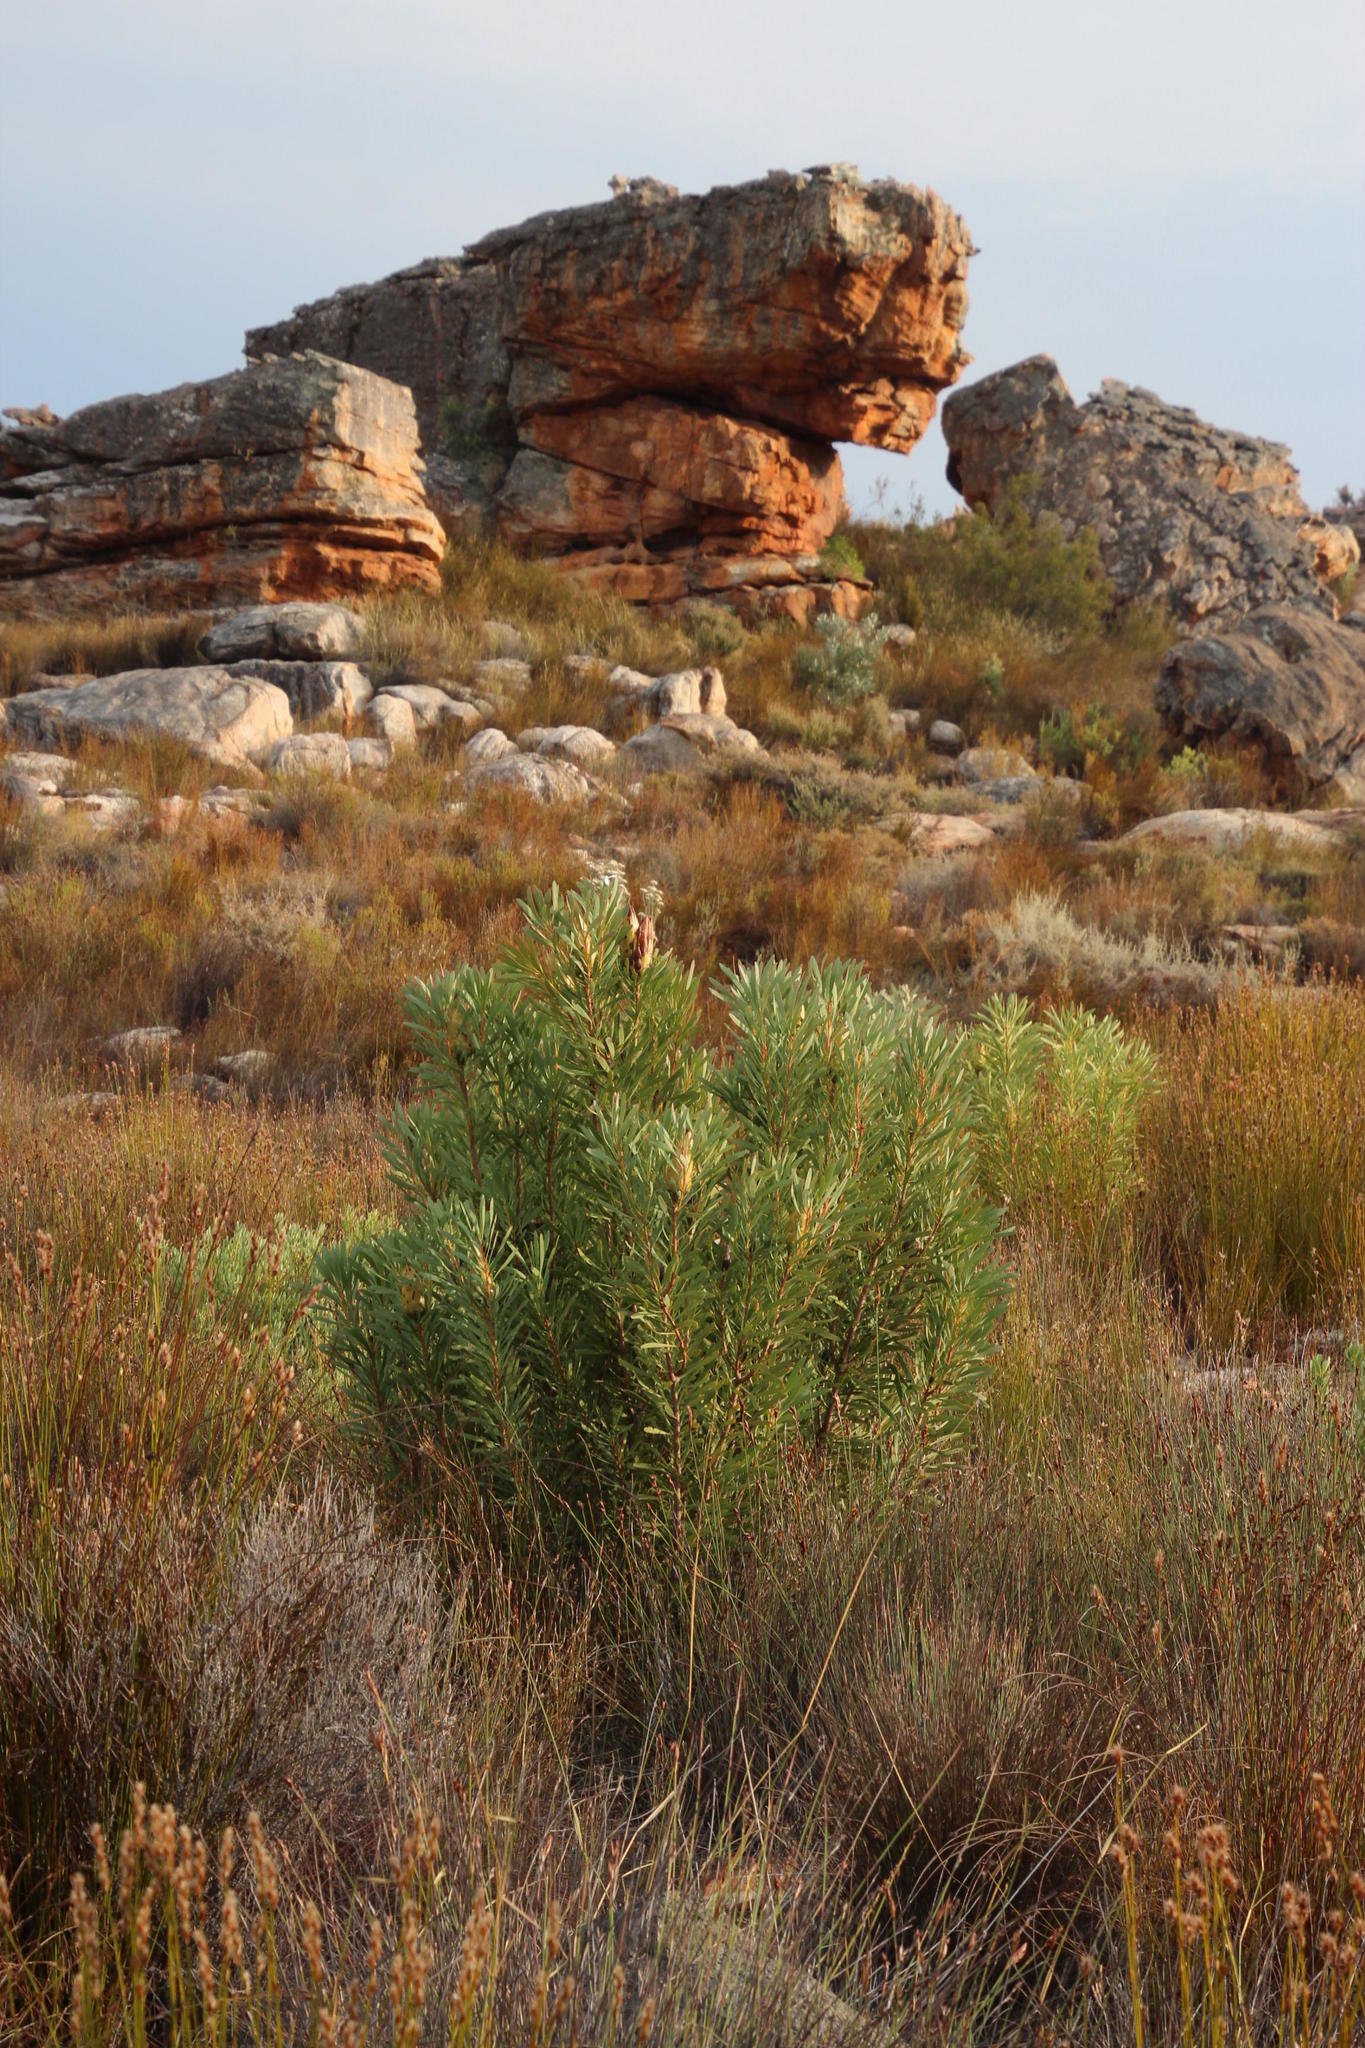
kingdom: Plantae
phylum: Tracheophyta
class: Magnoliopsida
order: Proteales
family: Proteaceae
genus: Protea
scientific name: Protea repens
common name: Sugarbush
